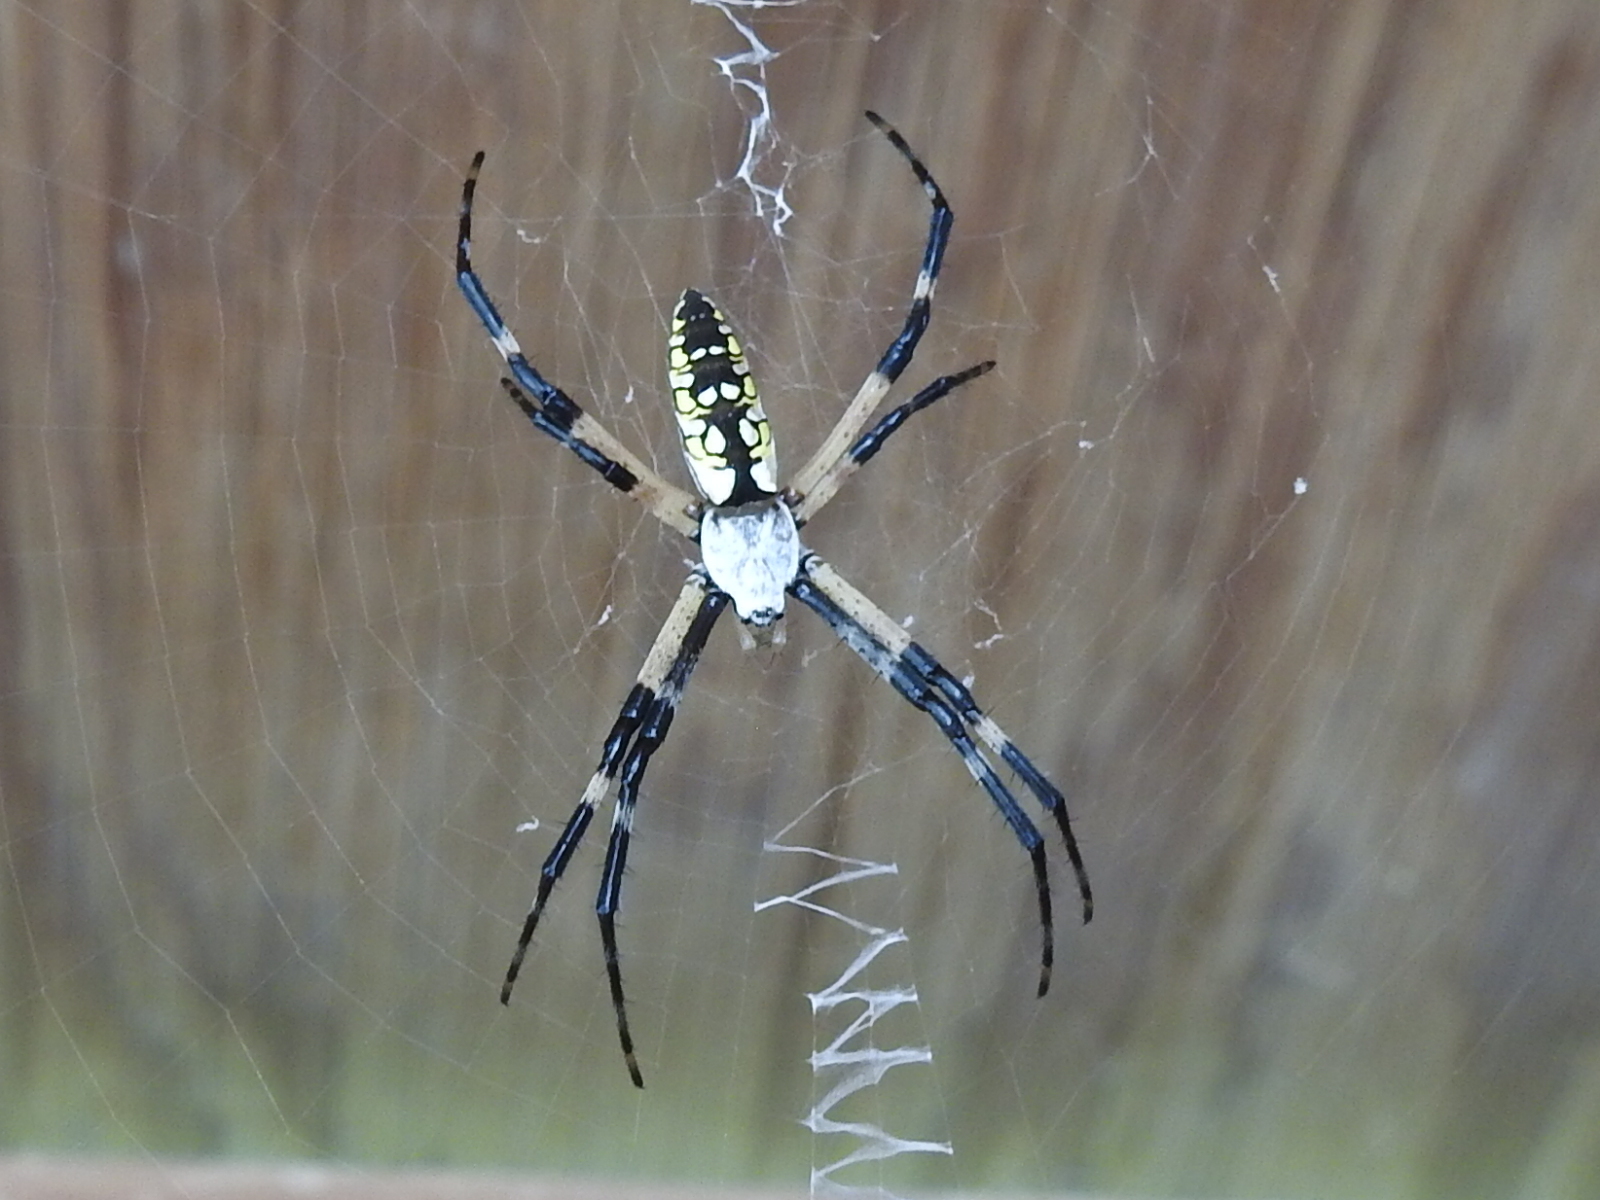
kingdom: Animalia
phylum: Arthropoda
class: Arachnida
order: Araneae
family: Araneidae
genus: Argiope
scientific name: Argiope aurantia
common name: Orb weavers
